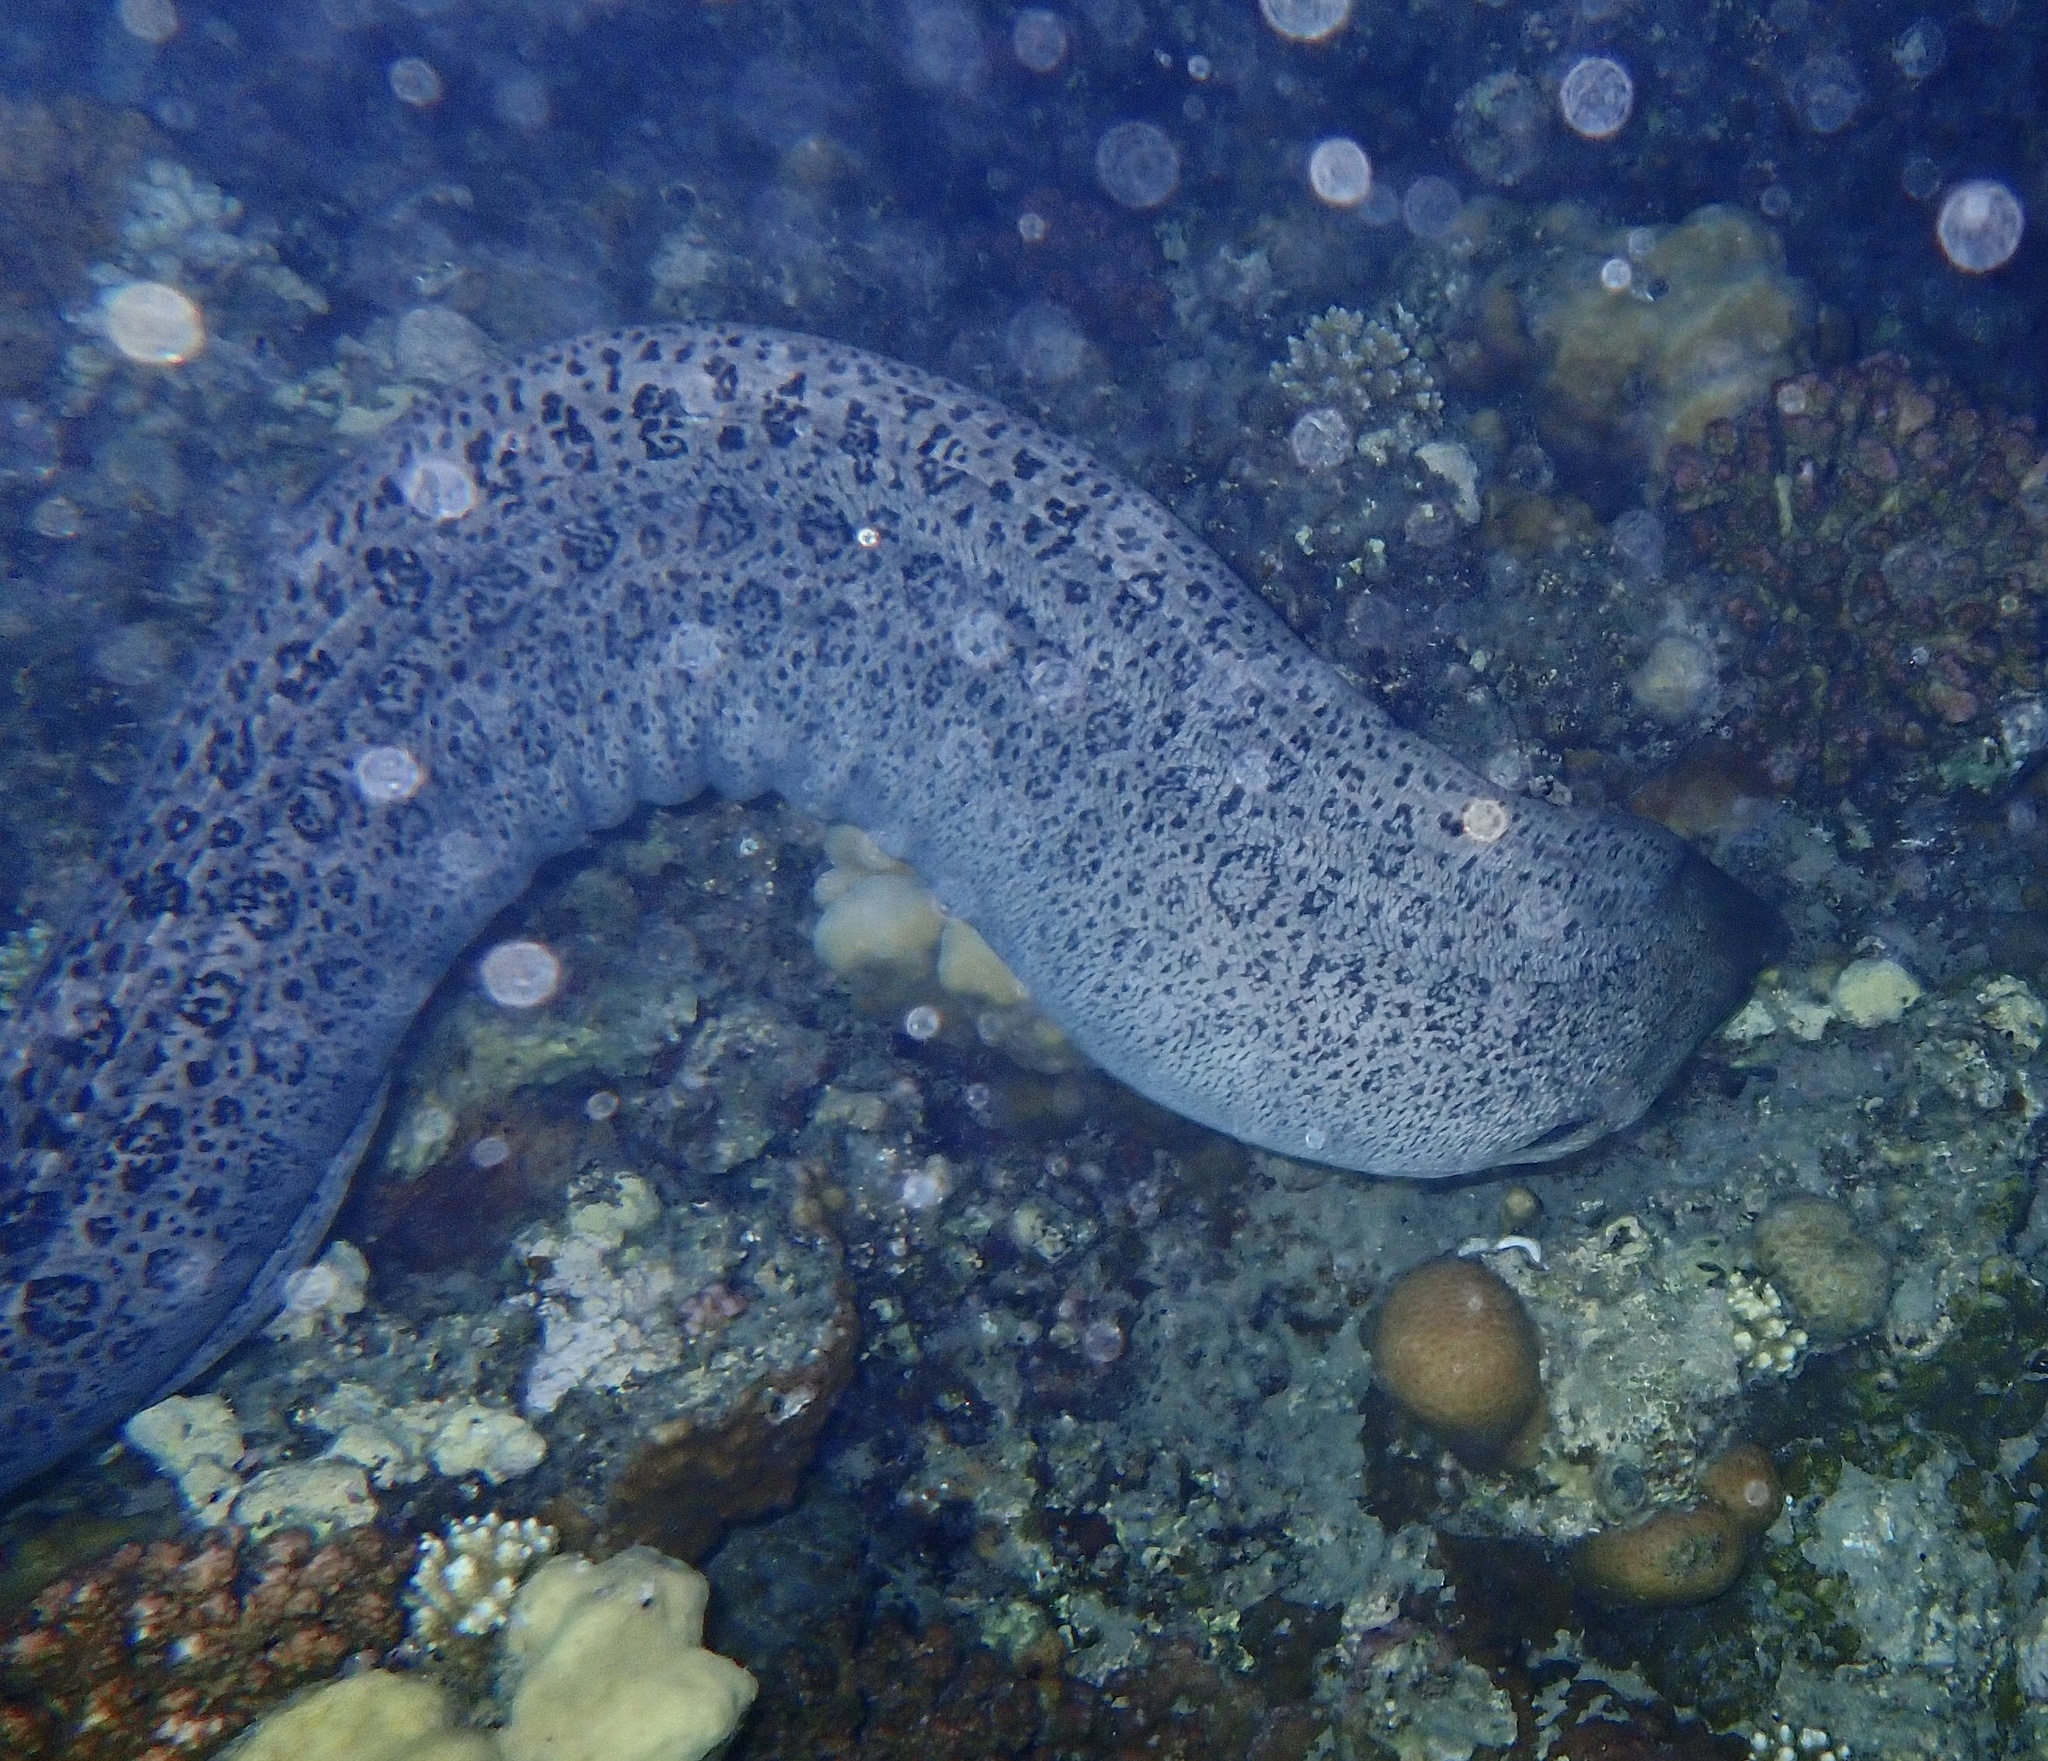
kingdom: Animalia
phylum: Chordata
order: Anguilliformes
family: Muraenidae
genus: Gymnothorax
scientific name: Gymnothorax javanicus
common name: Giant moray
